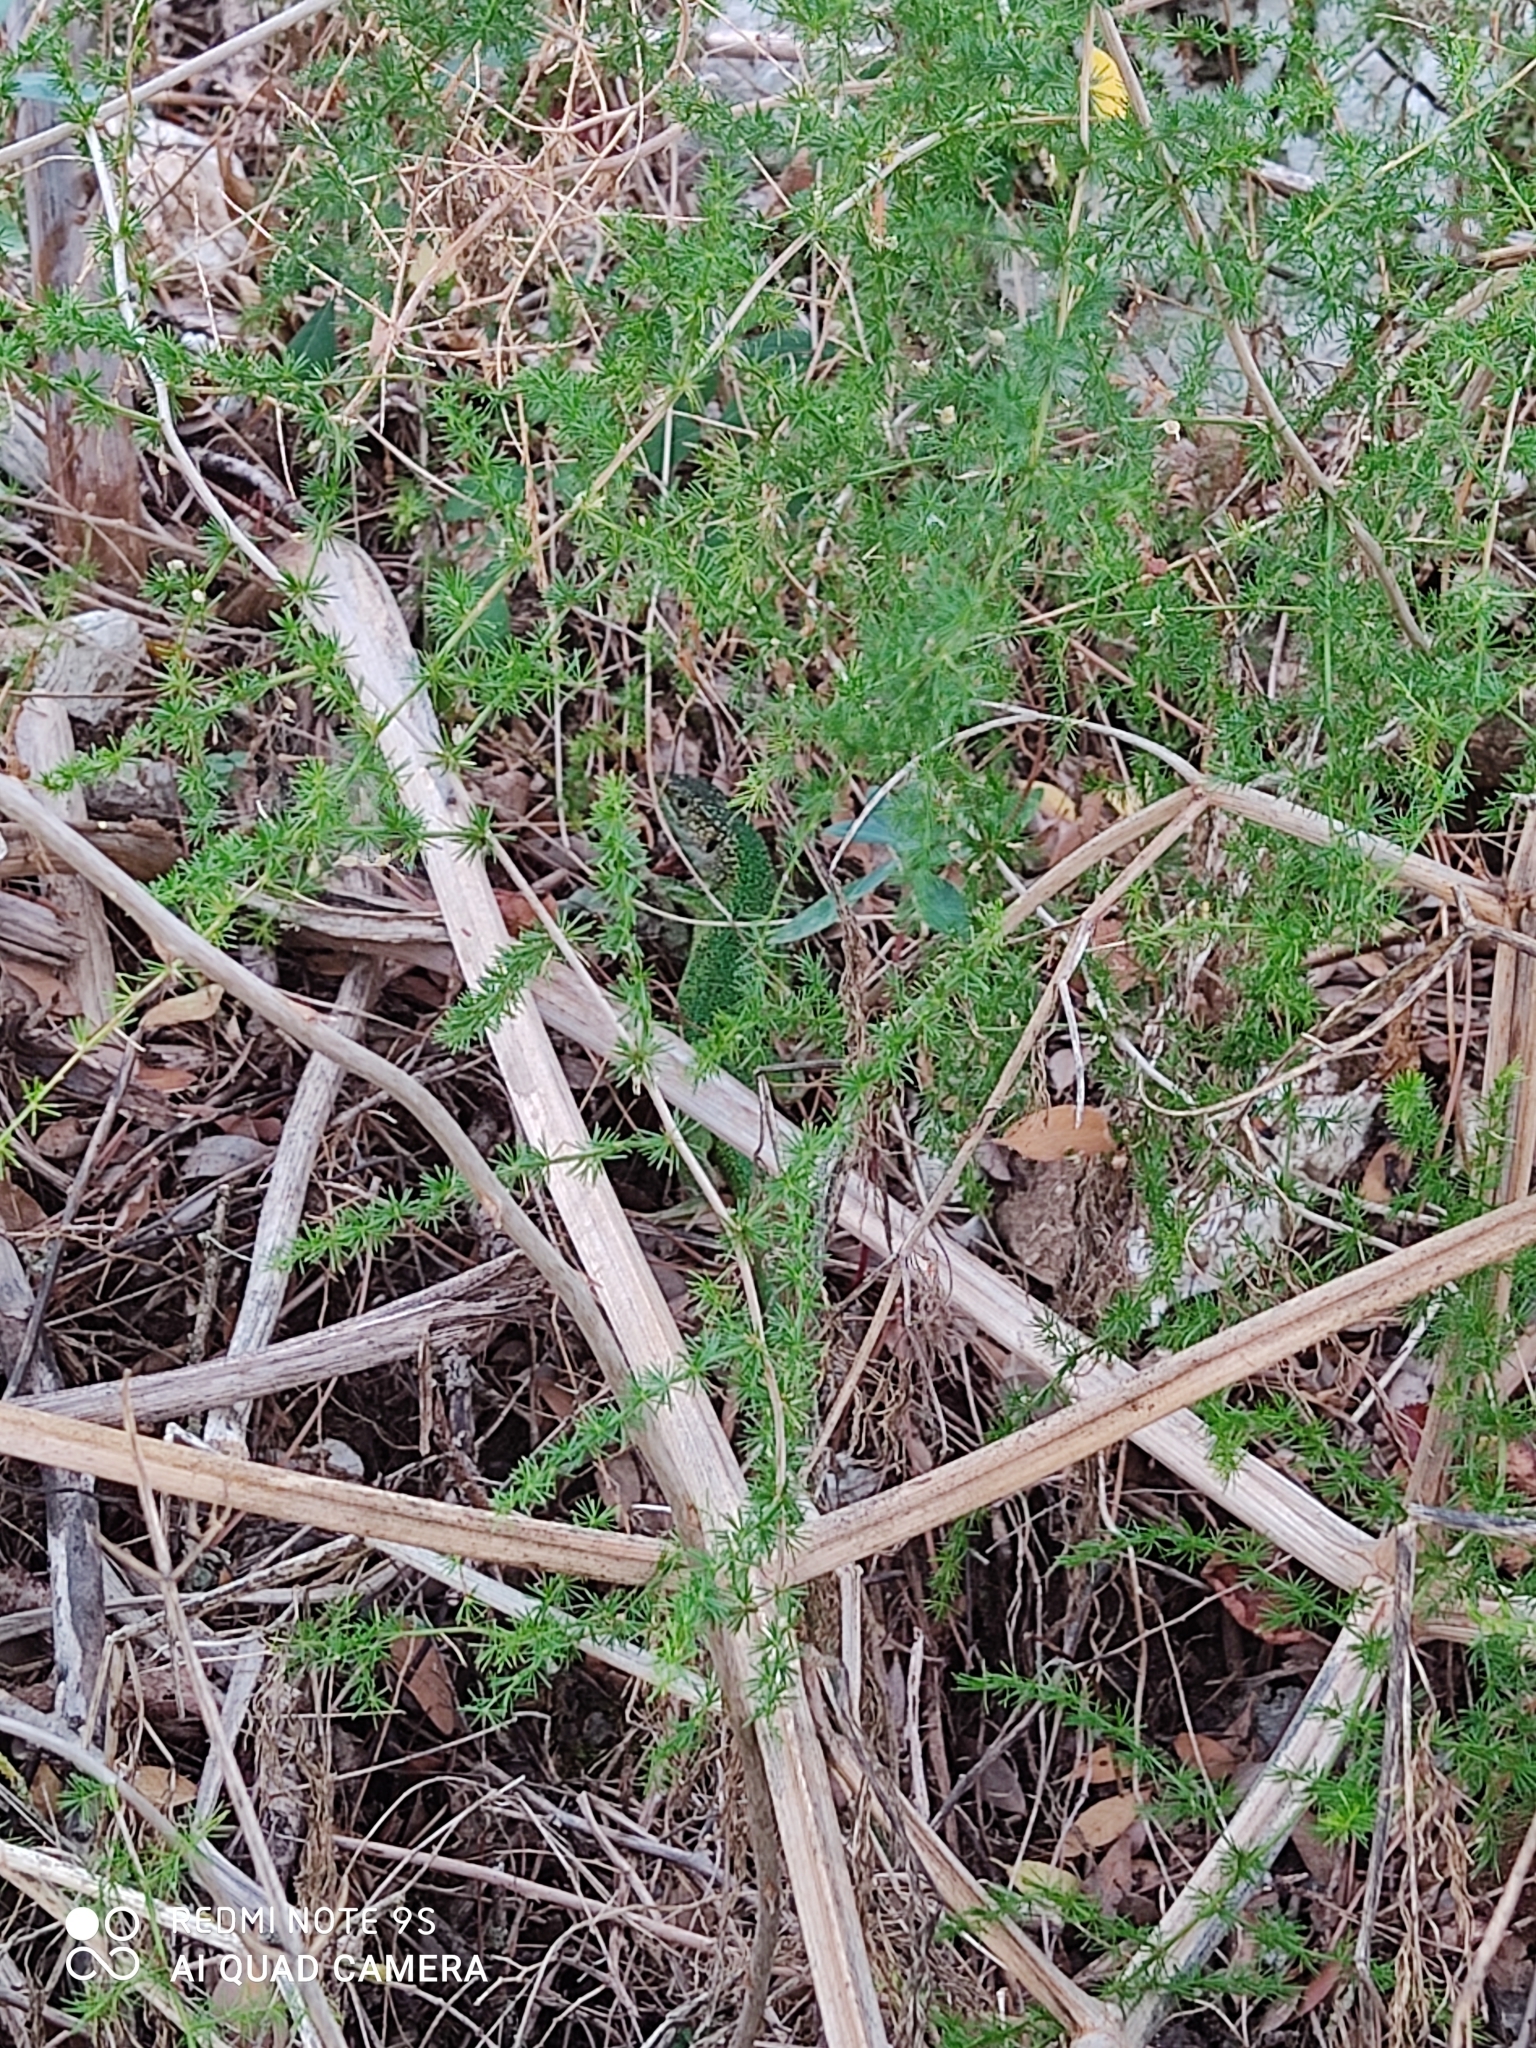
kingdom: Animalia
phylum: Chordata
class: Squamata
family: Lacertidae
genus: Lacerta
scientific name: Lacerta bilineata
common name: Western green lizard
